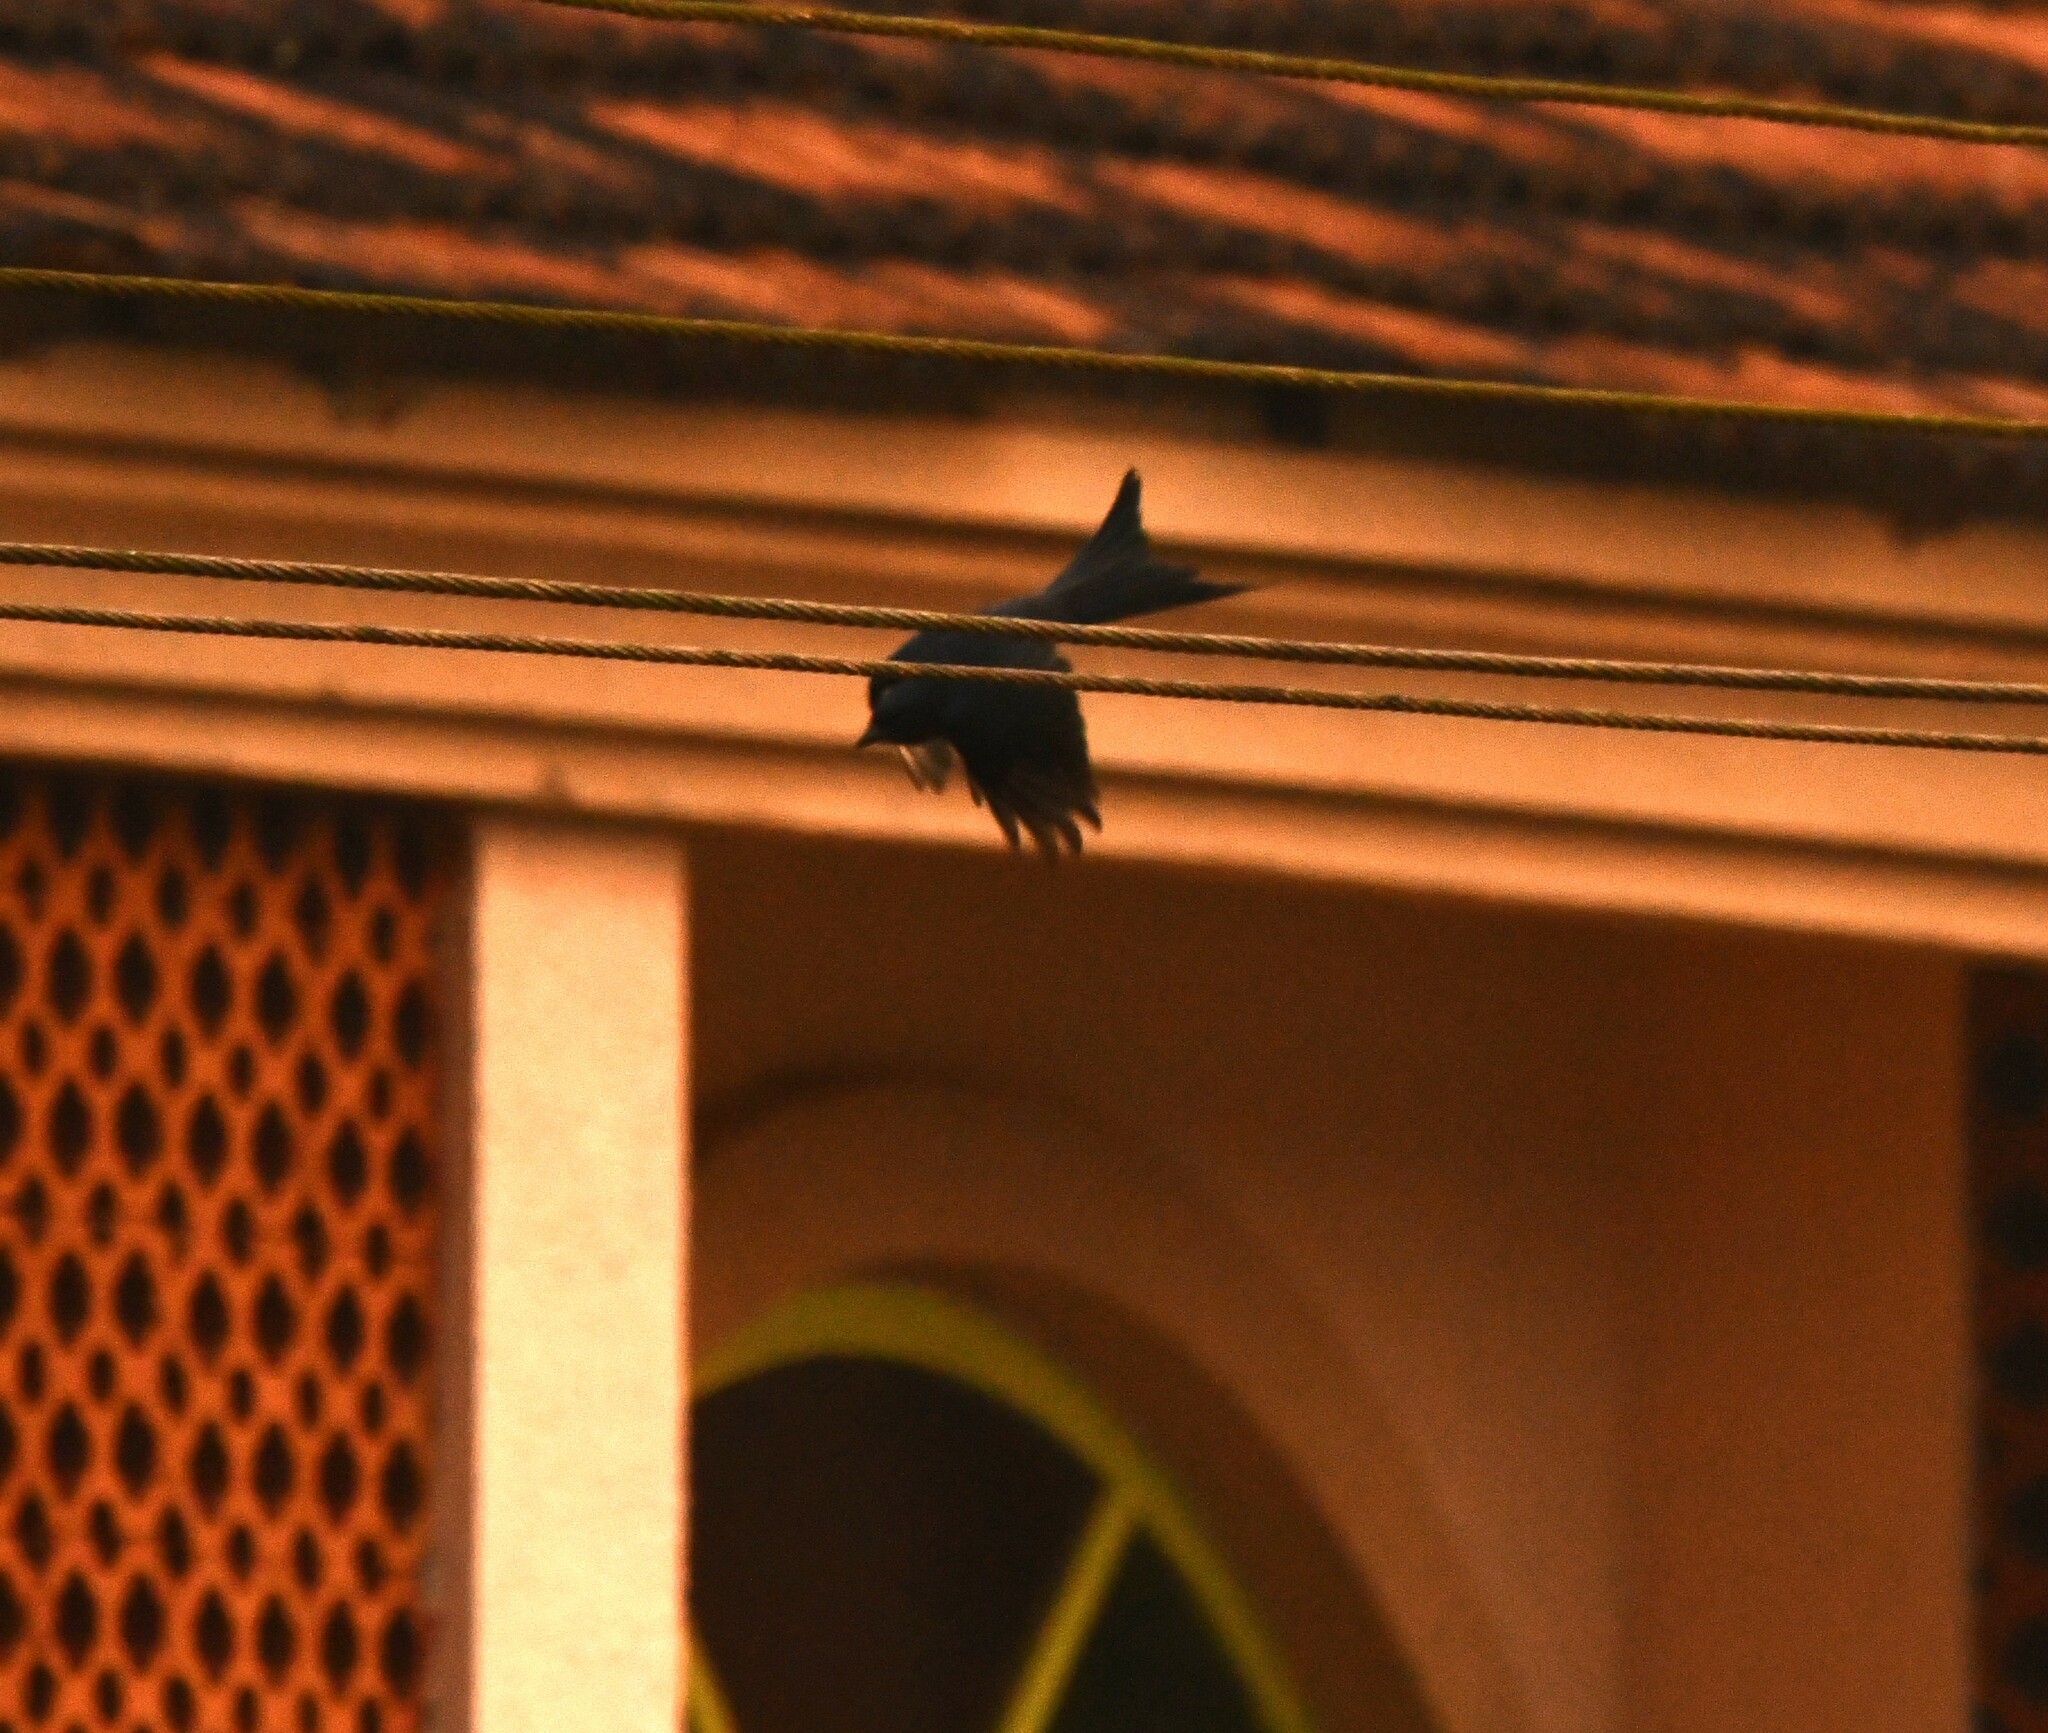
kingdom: Animalia
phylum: Chordata
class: Aves
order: Passeriformes
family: Dicruridae
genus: Dicrurus
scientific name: Dicrurus leucophaeus
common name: Ashy drongo
